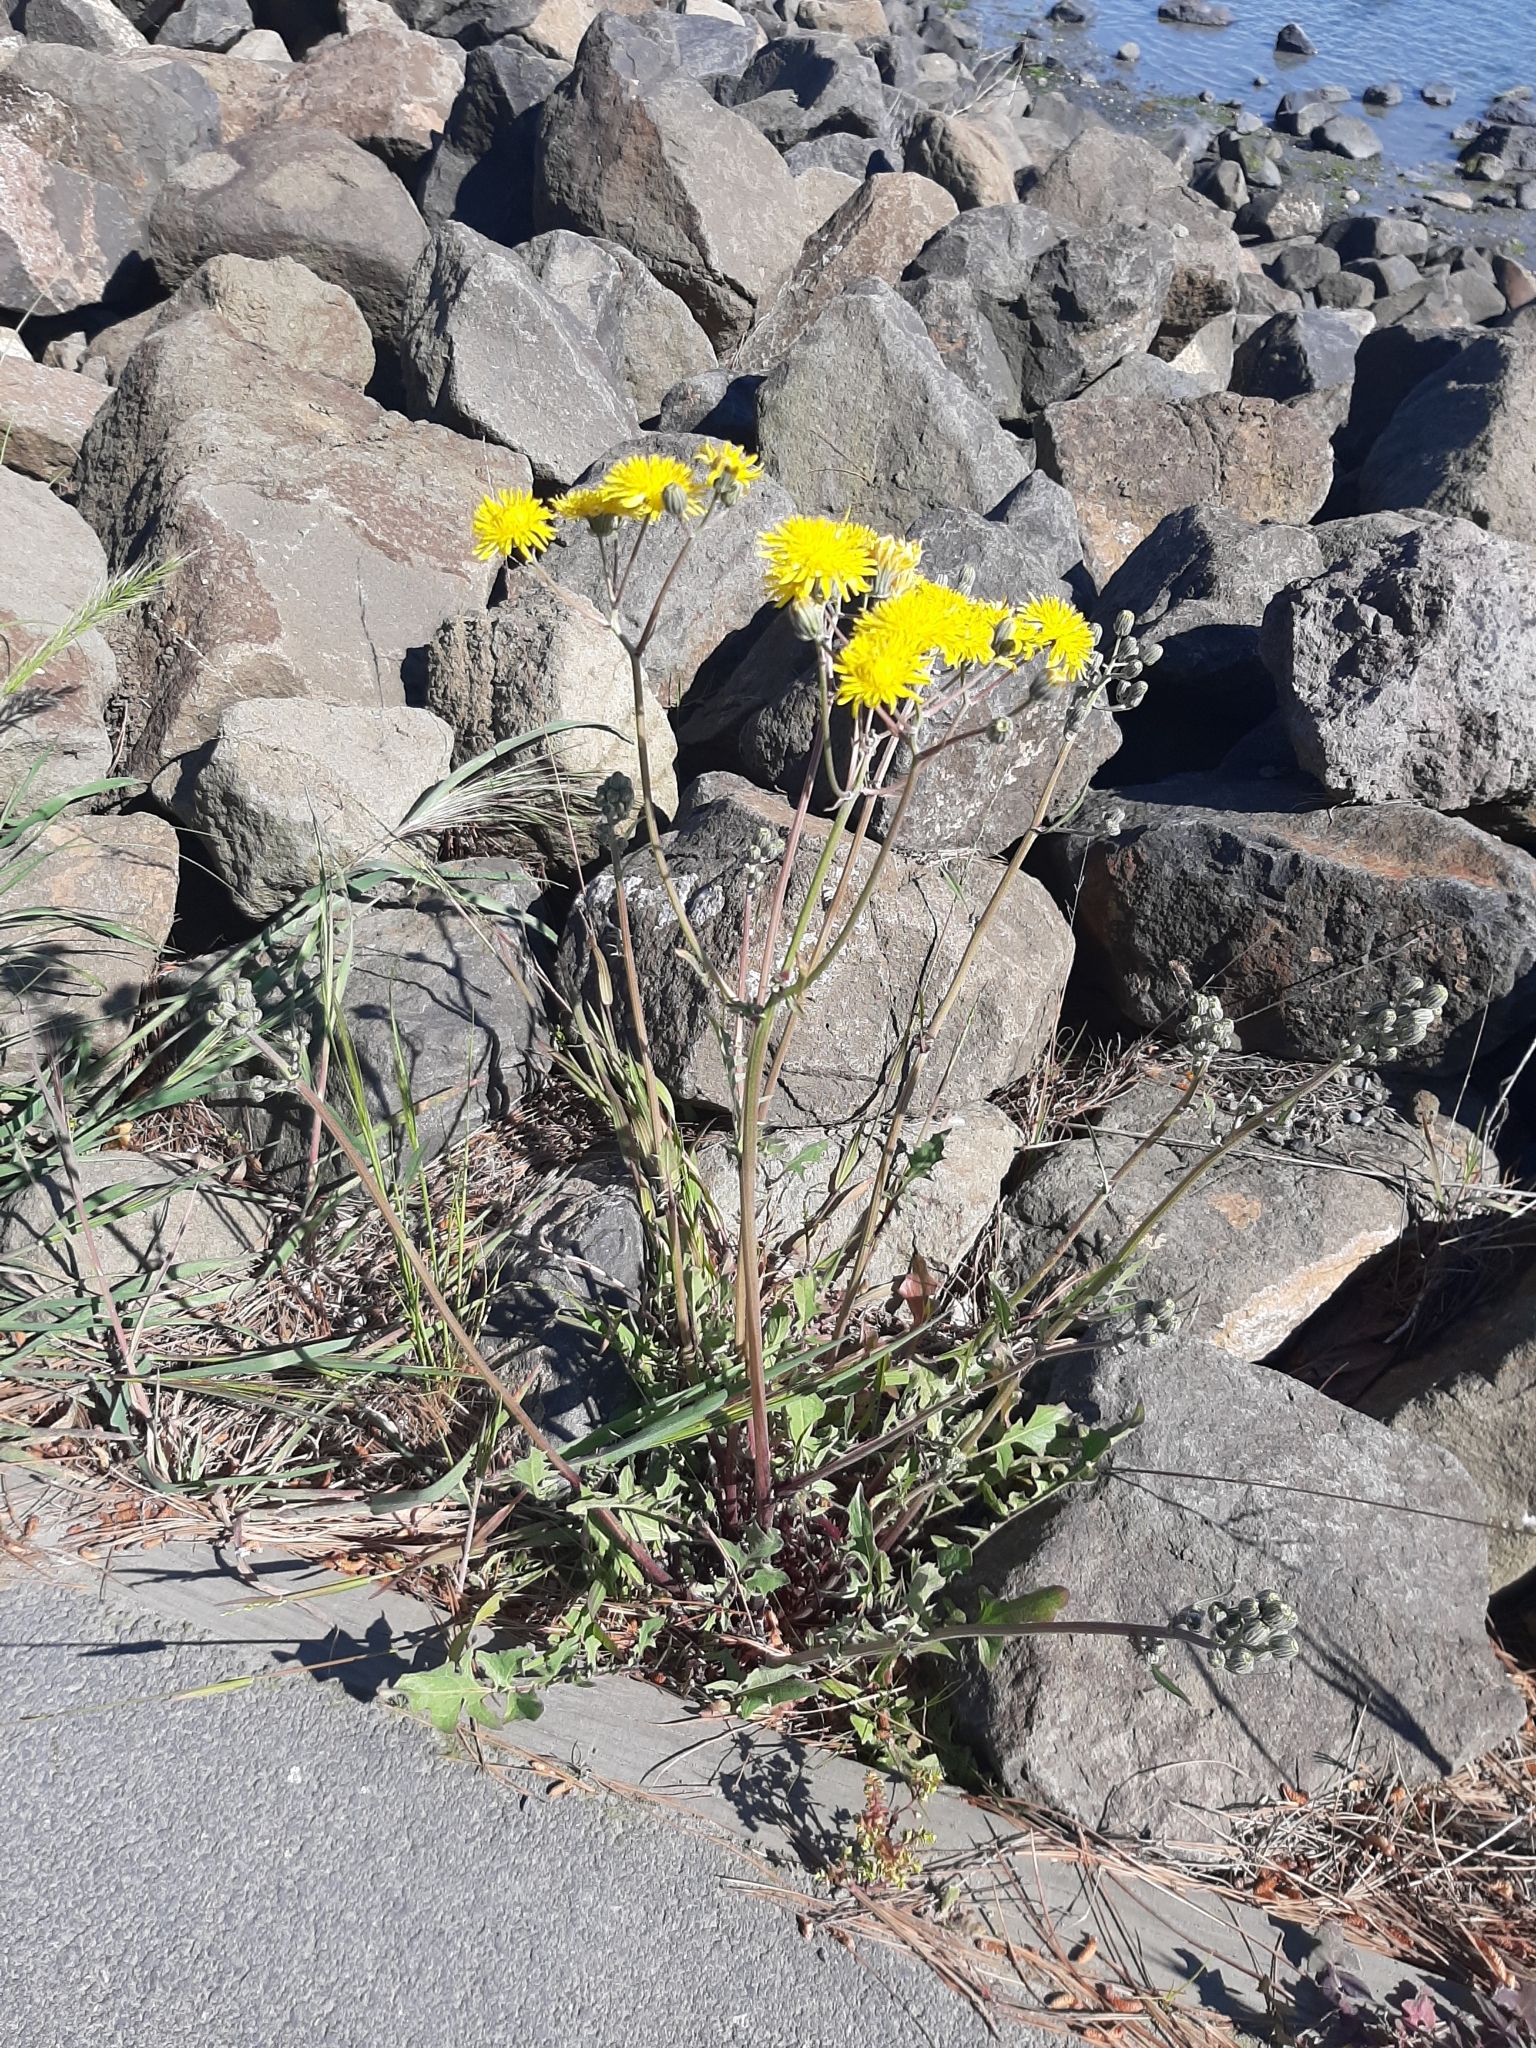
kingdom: Plantae
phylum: Tracheophyta
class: Magnoliopsida
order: Asterales
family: Asteraceae
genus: Crepis
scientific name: Crepis vesicaria
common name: Beaked hawksbeard
